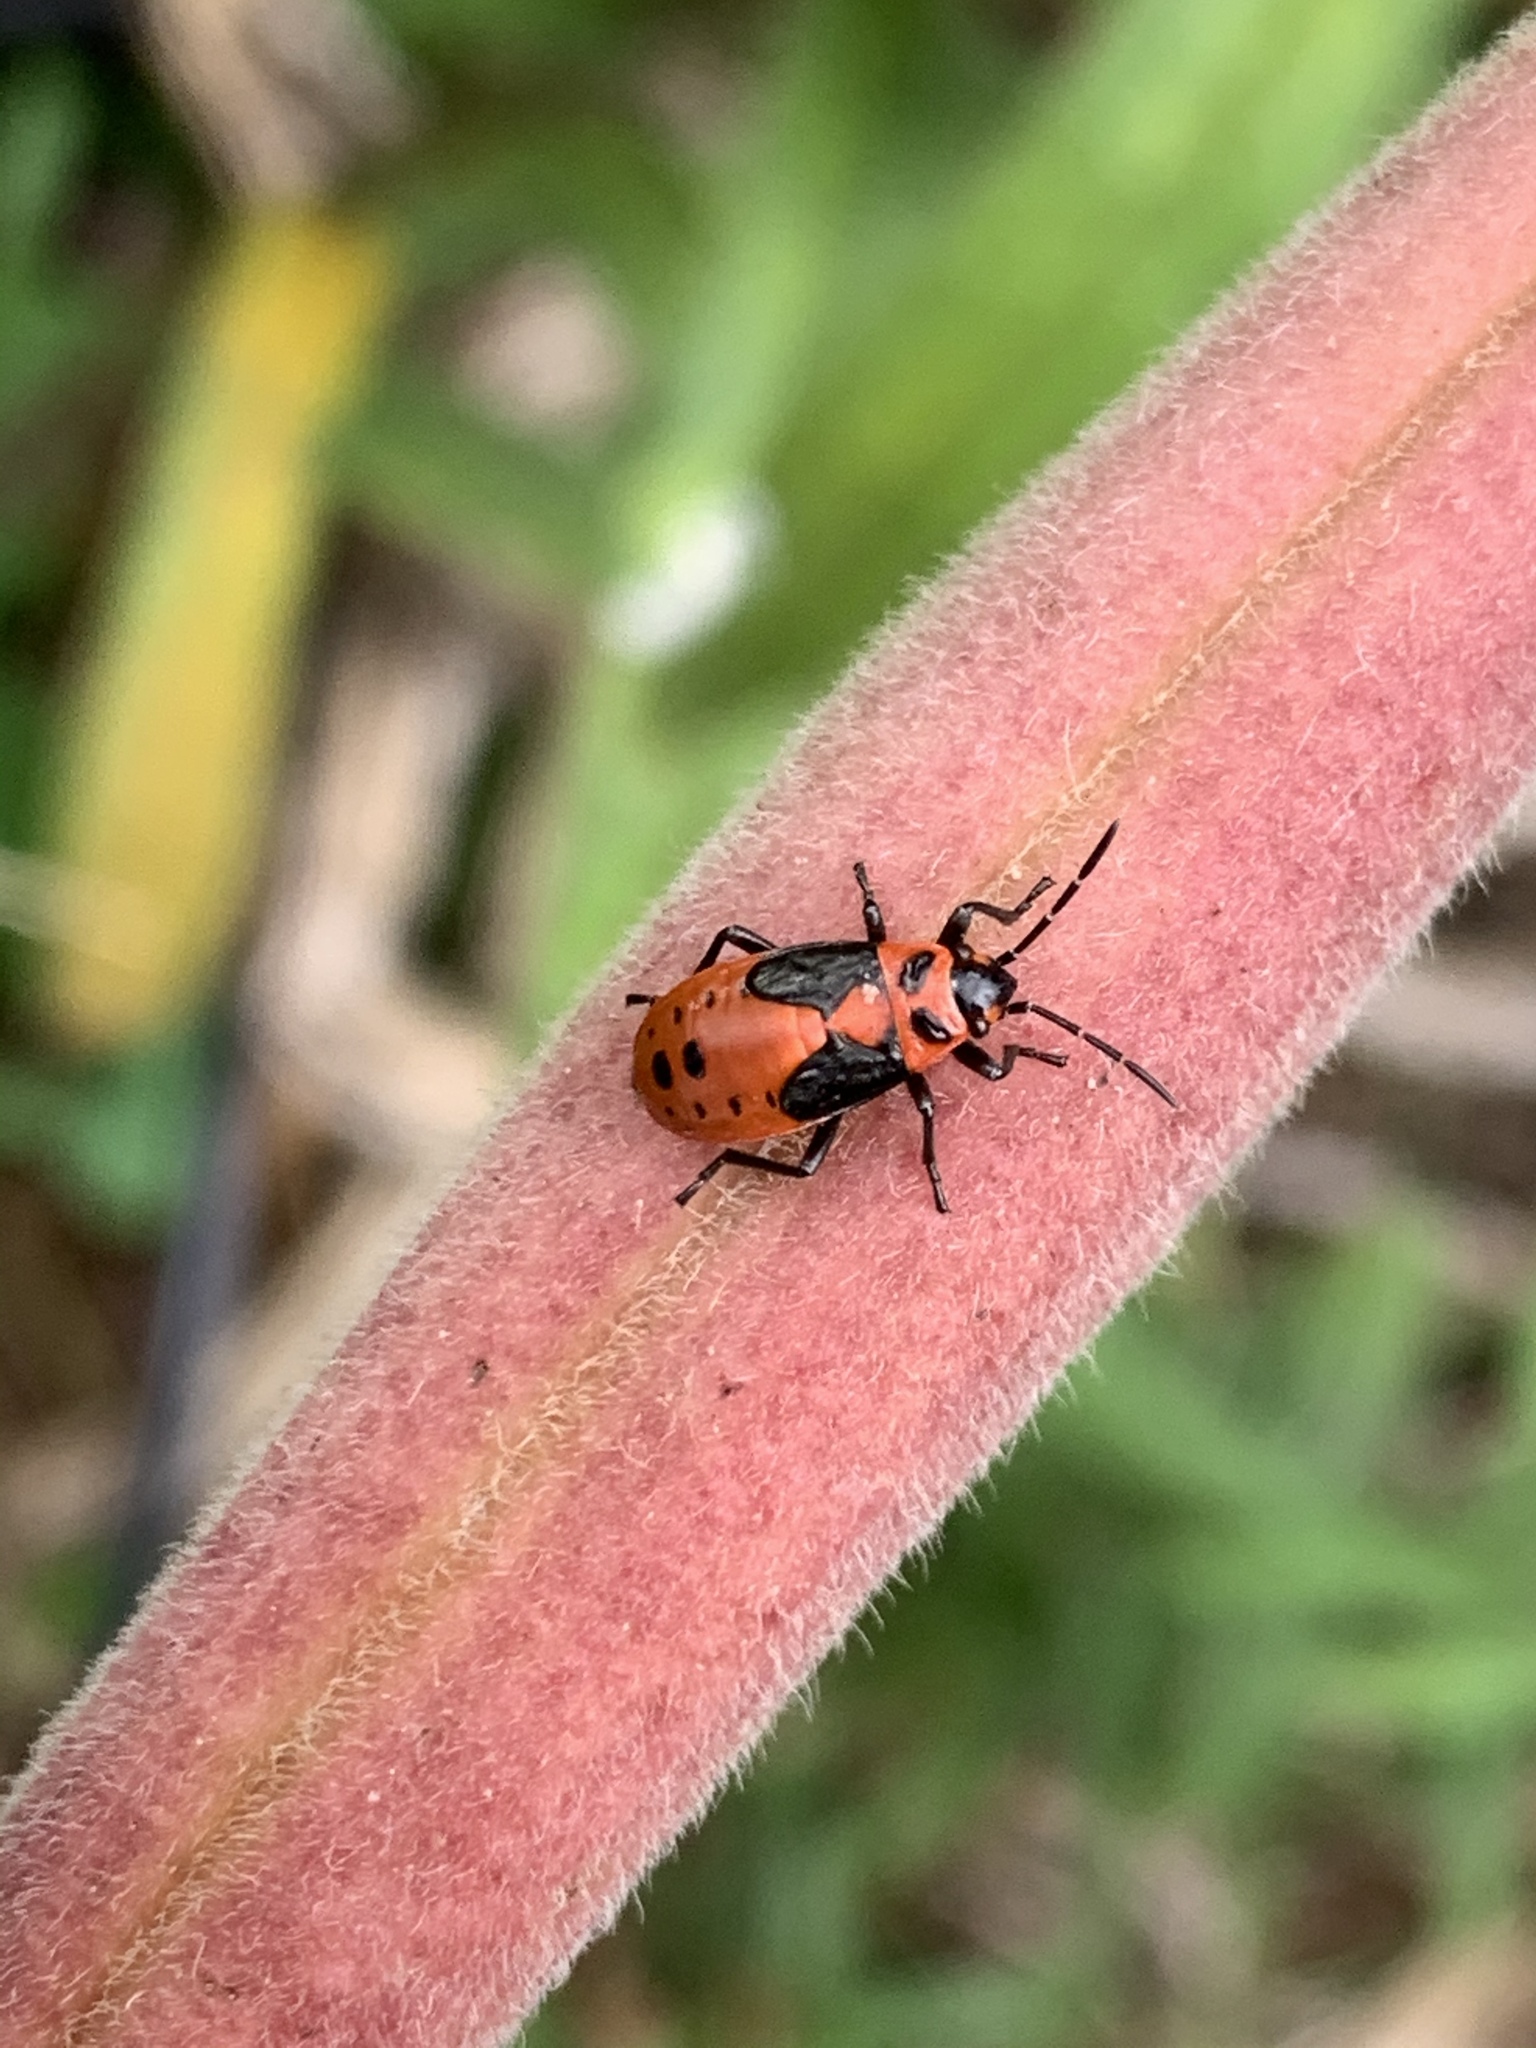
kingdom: Animalia
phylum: Arthropoda
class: Insecta
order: Hemiptera
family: Lygaeidae
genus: Lygaeus
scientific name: Lygaeus kalmii
